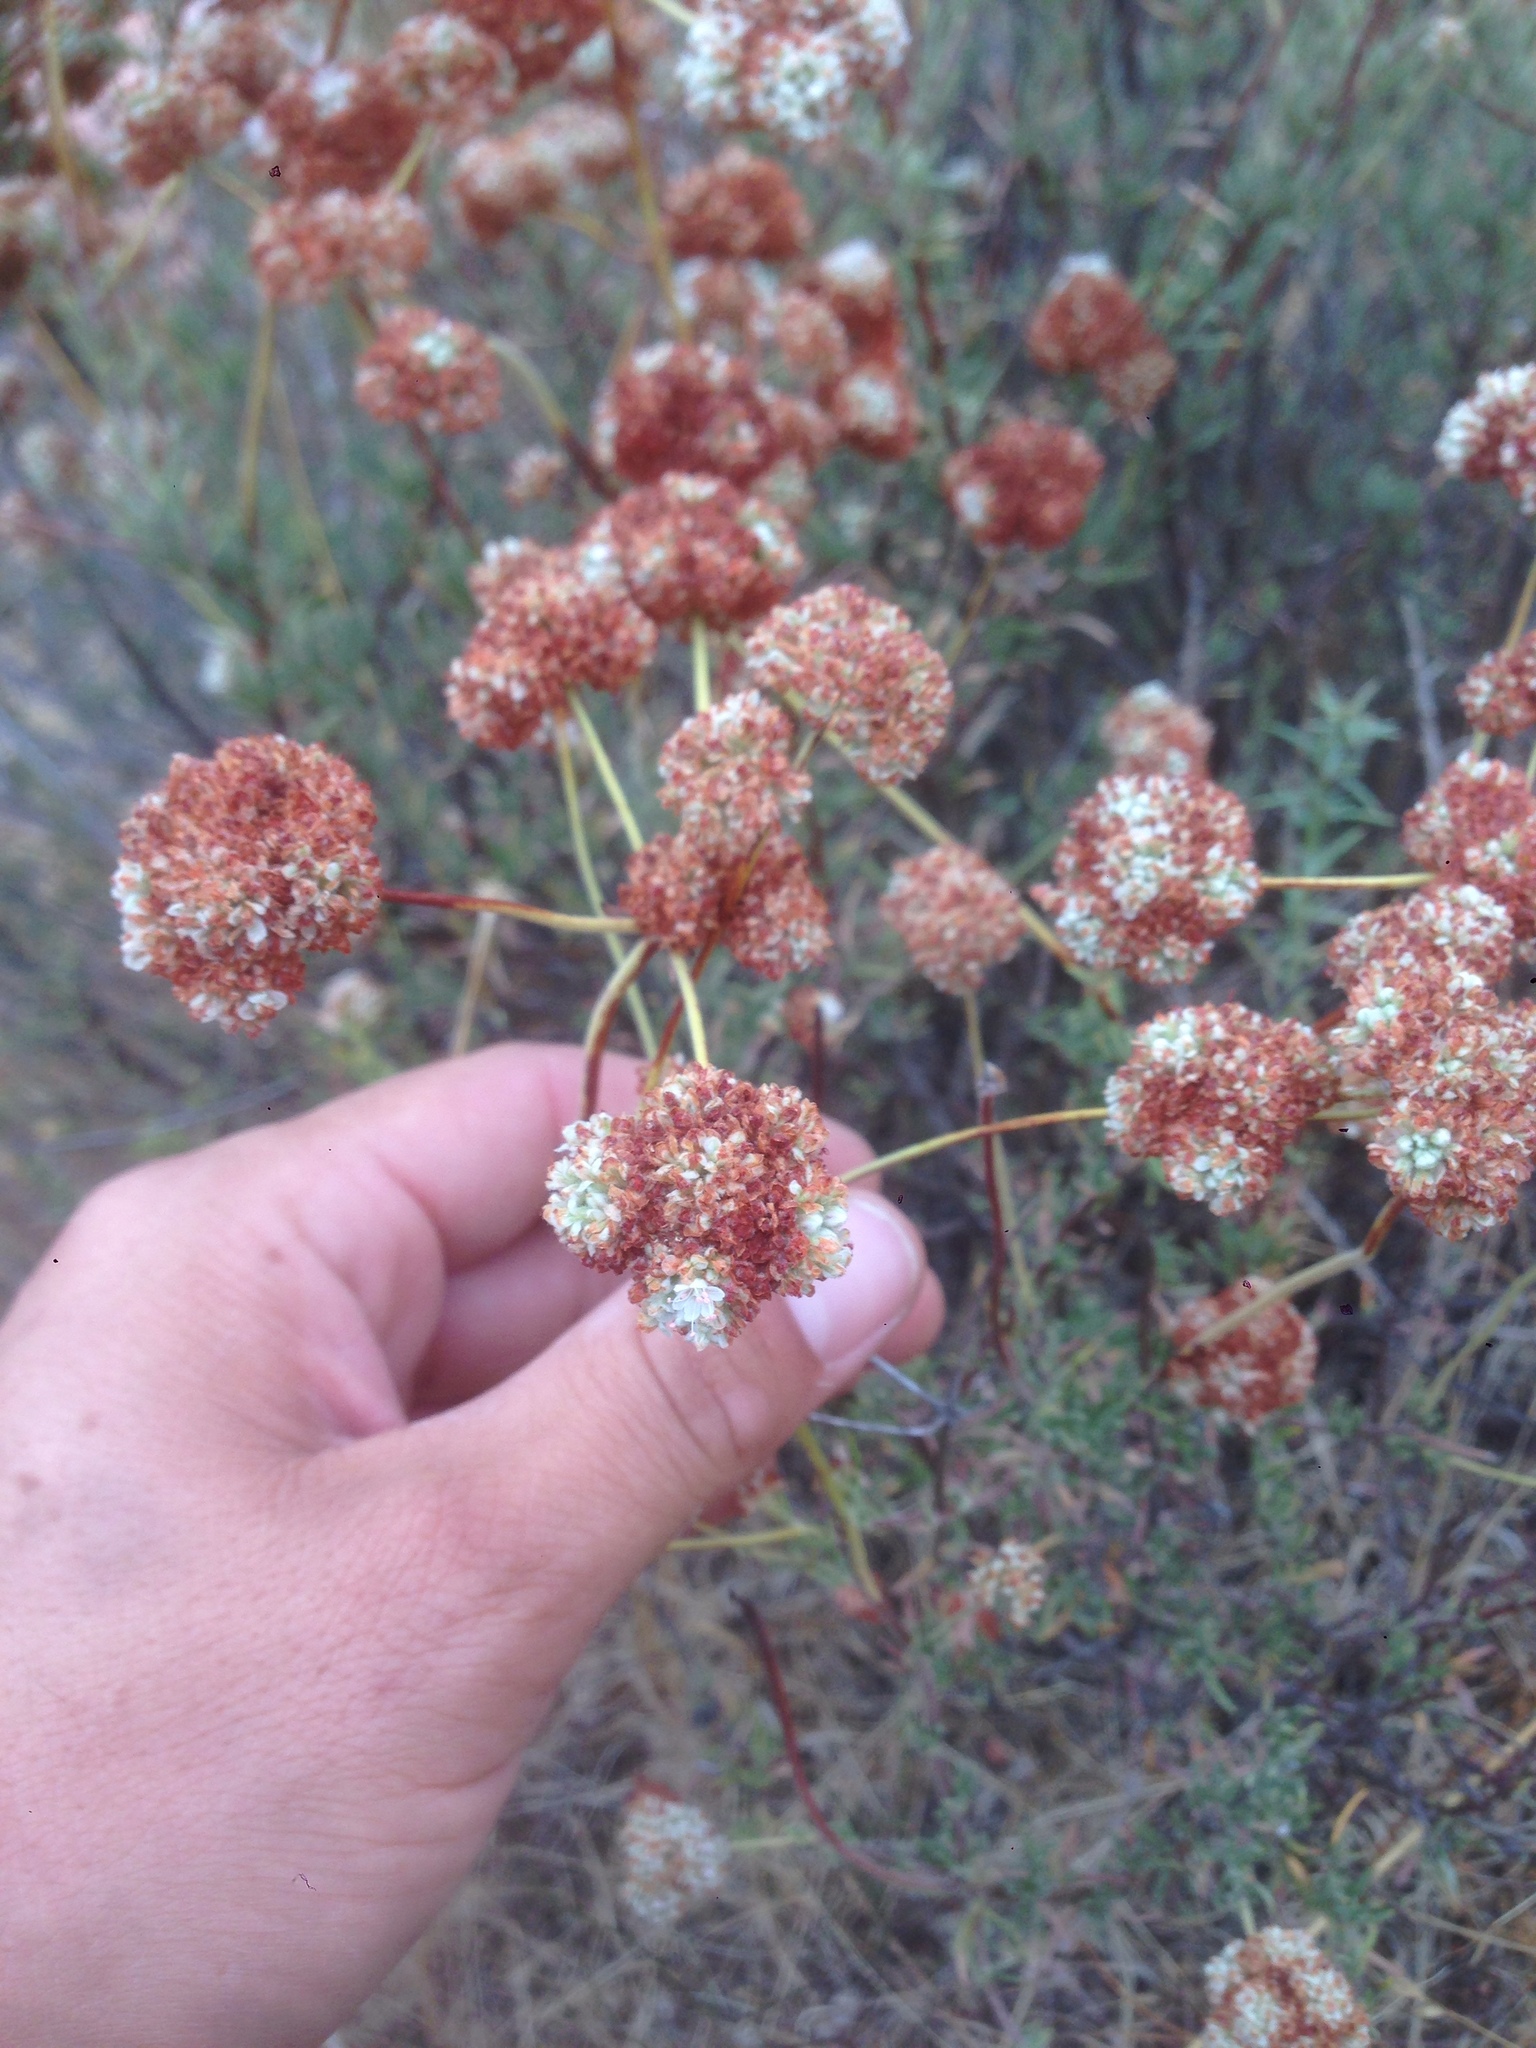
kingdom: Plantae
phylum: Tracheophyta
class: Magnoliopsida
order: Caryophyllales
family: Polygonaceae
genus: Eriogonum
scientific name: Eriogonum fasciculatum
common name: California wild buckwheat
